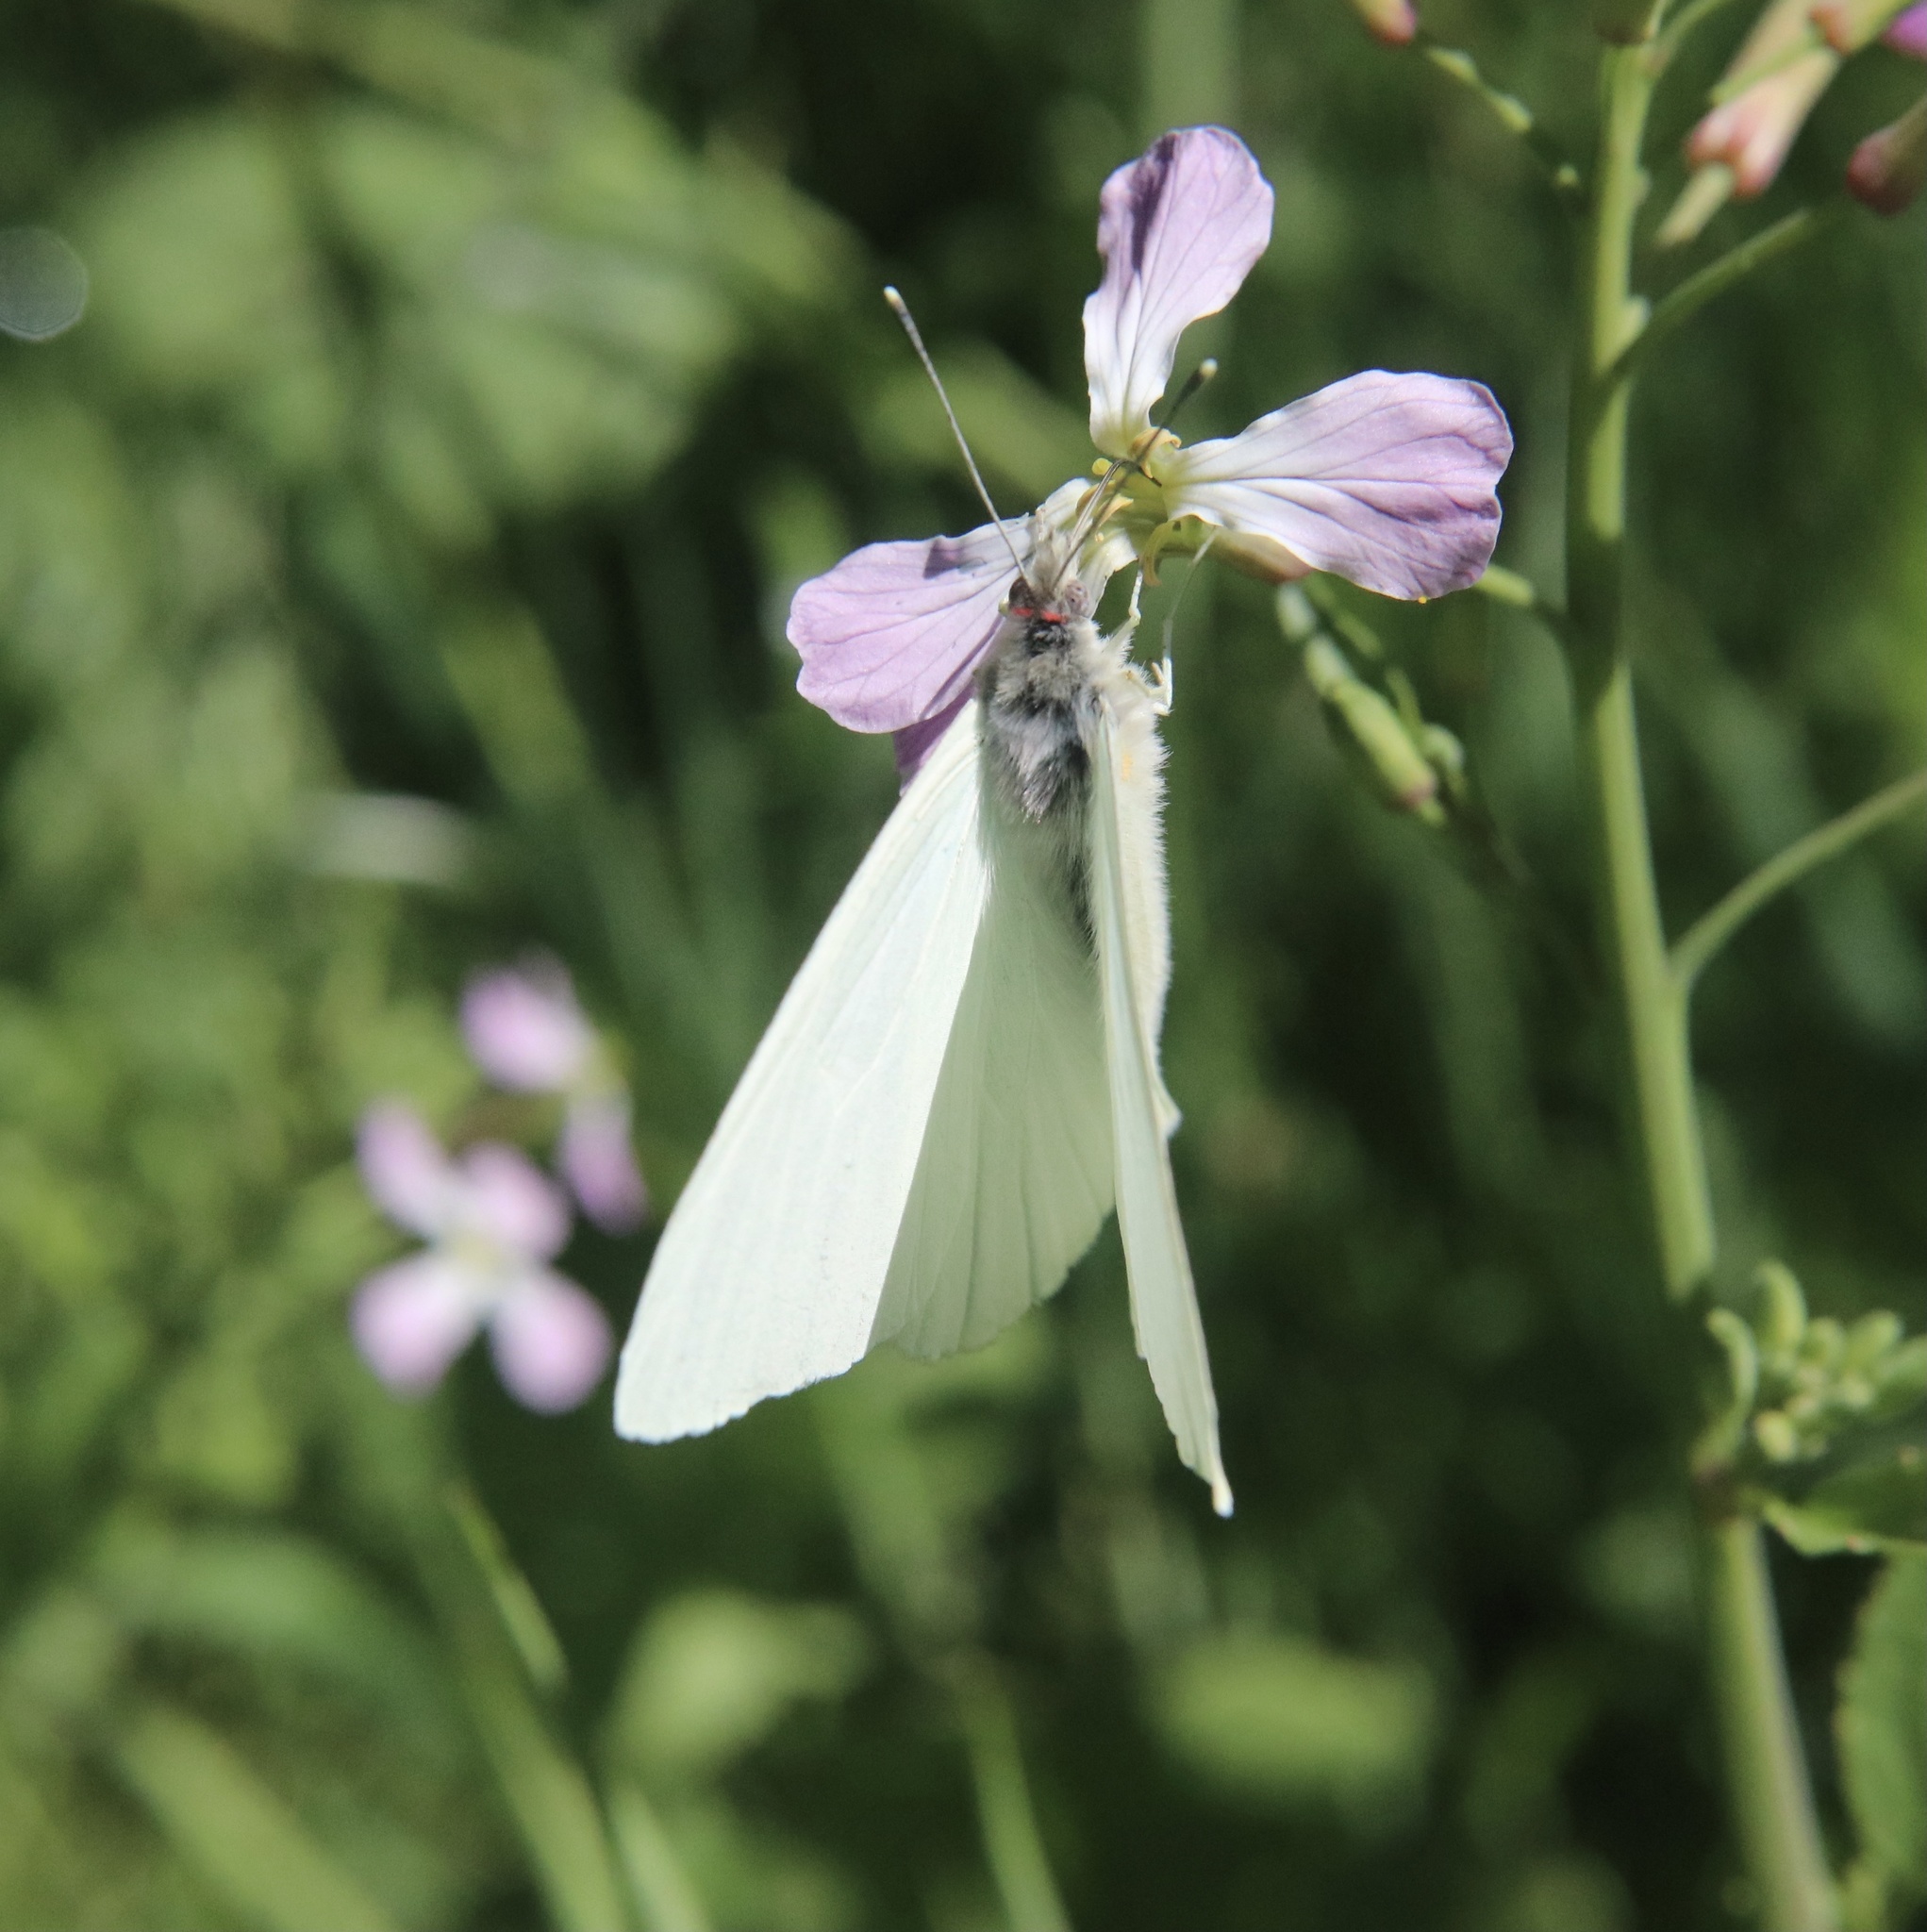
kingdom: Animalia
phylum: Arthropoda
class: Insecta
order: Lepidoptera
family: Pieridae
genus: Mathania
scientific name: Mathania leucothea
